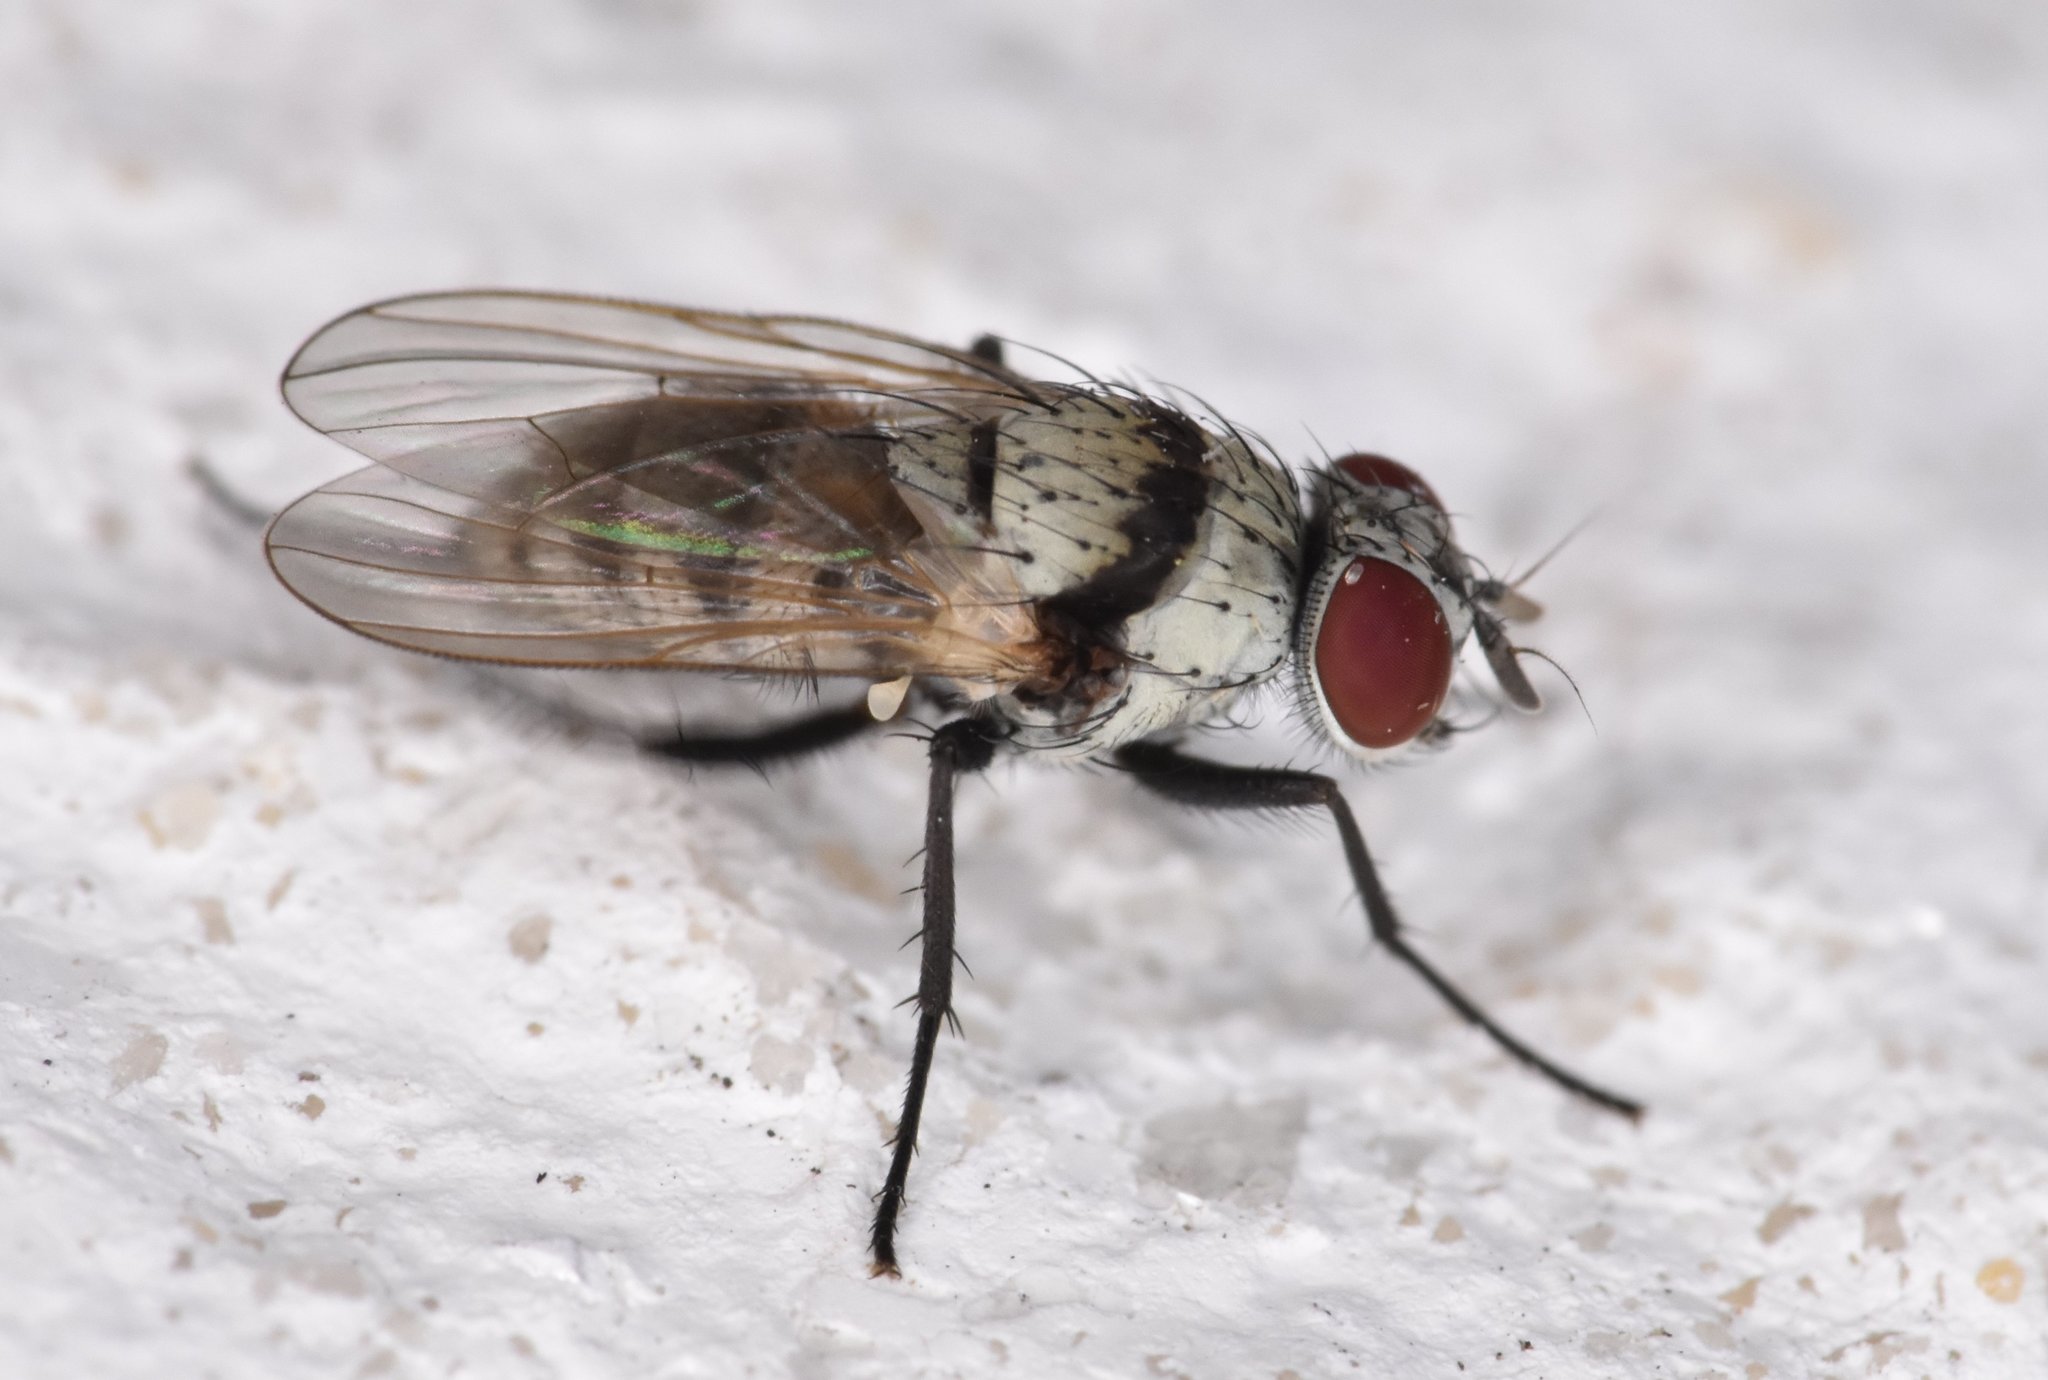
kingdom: Animalia
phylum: Arthropoda
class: Insecta
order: Diptera
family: Anthomyiidae
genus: Anthomyia
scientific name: Anthomyia illocata
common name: Fly
